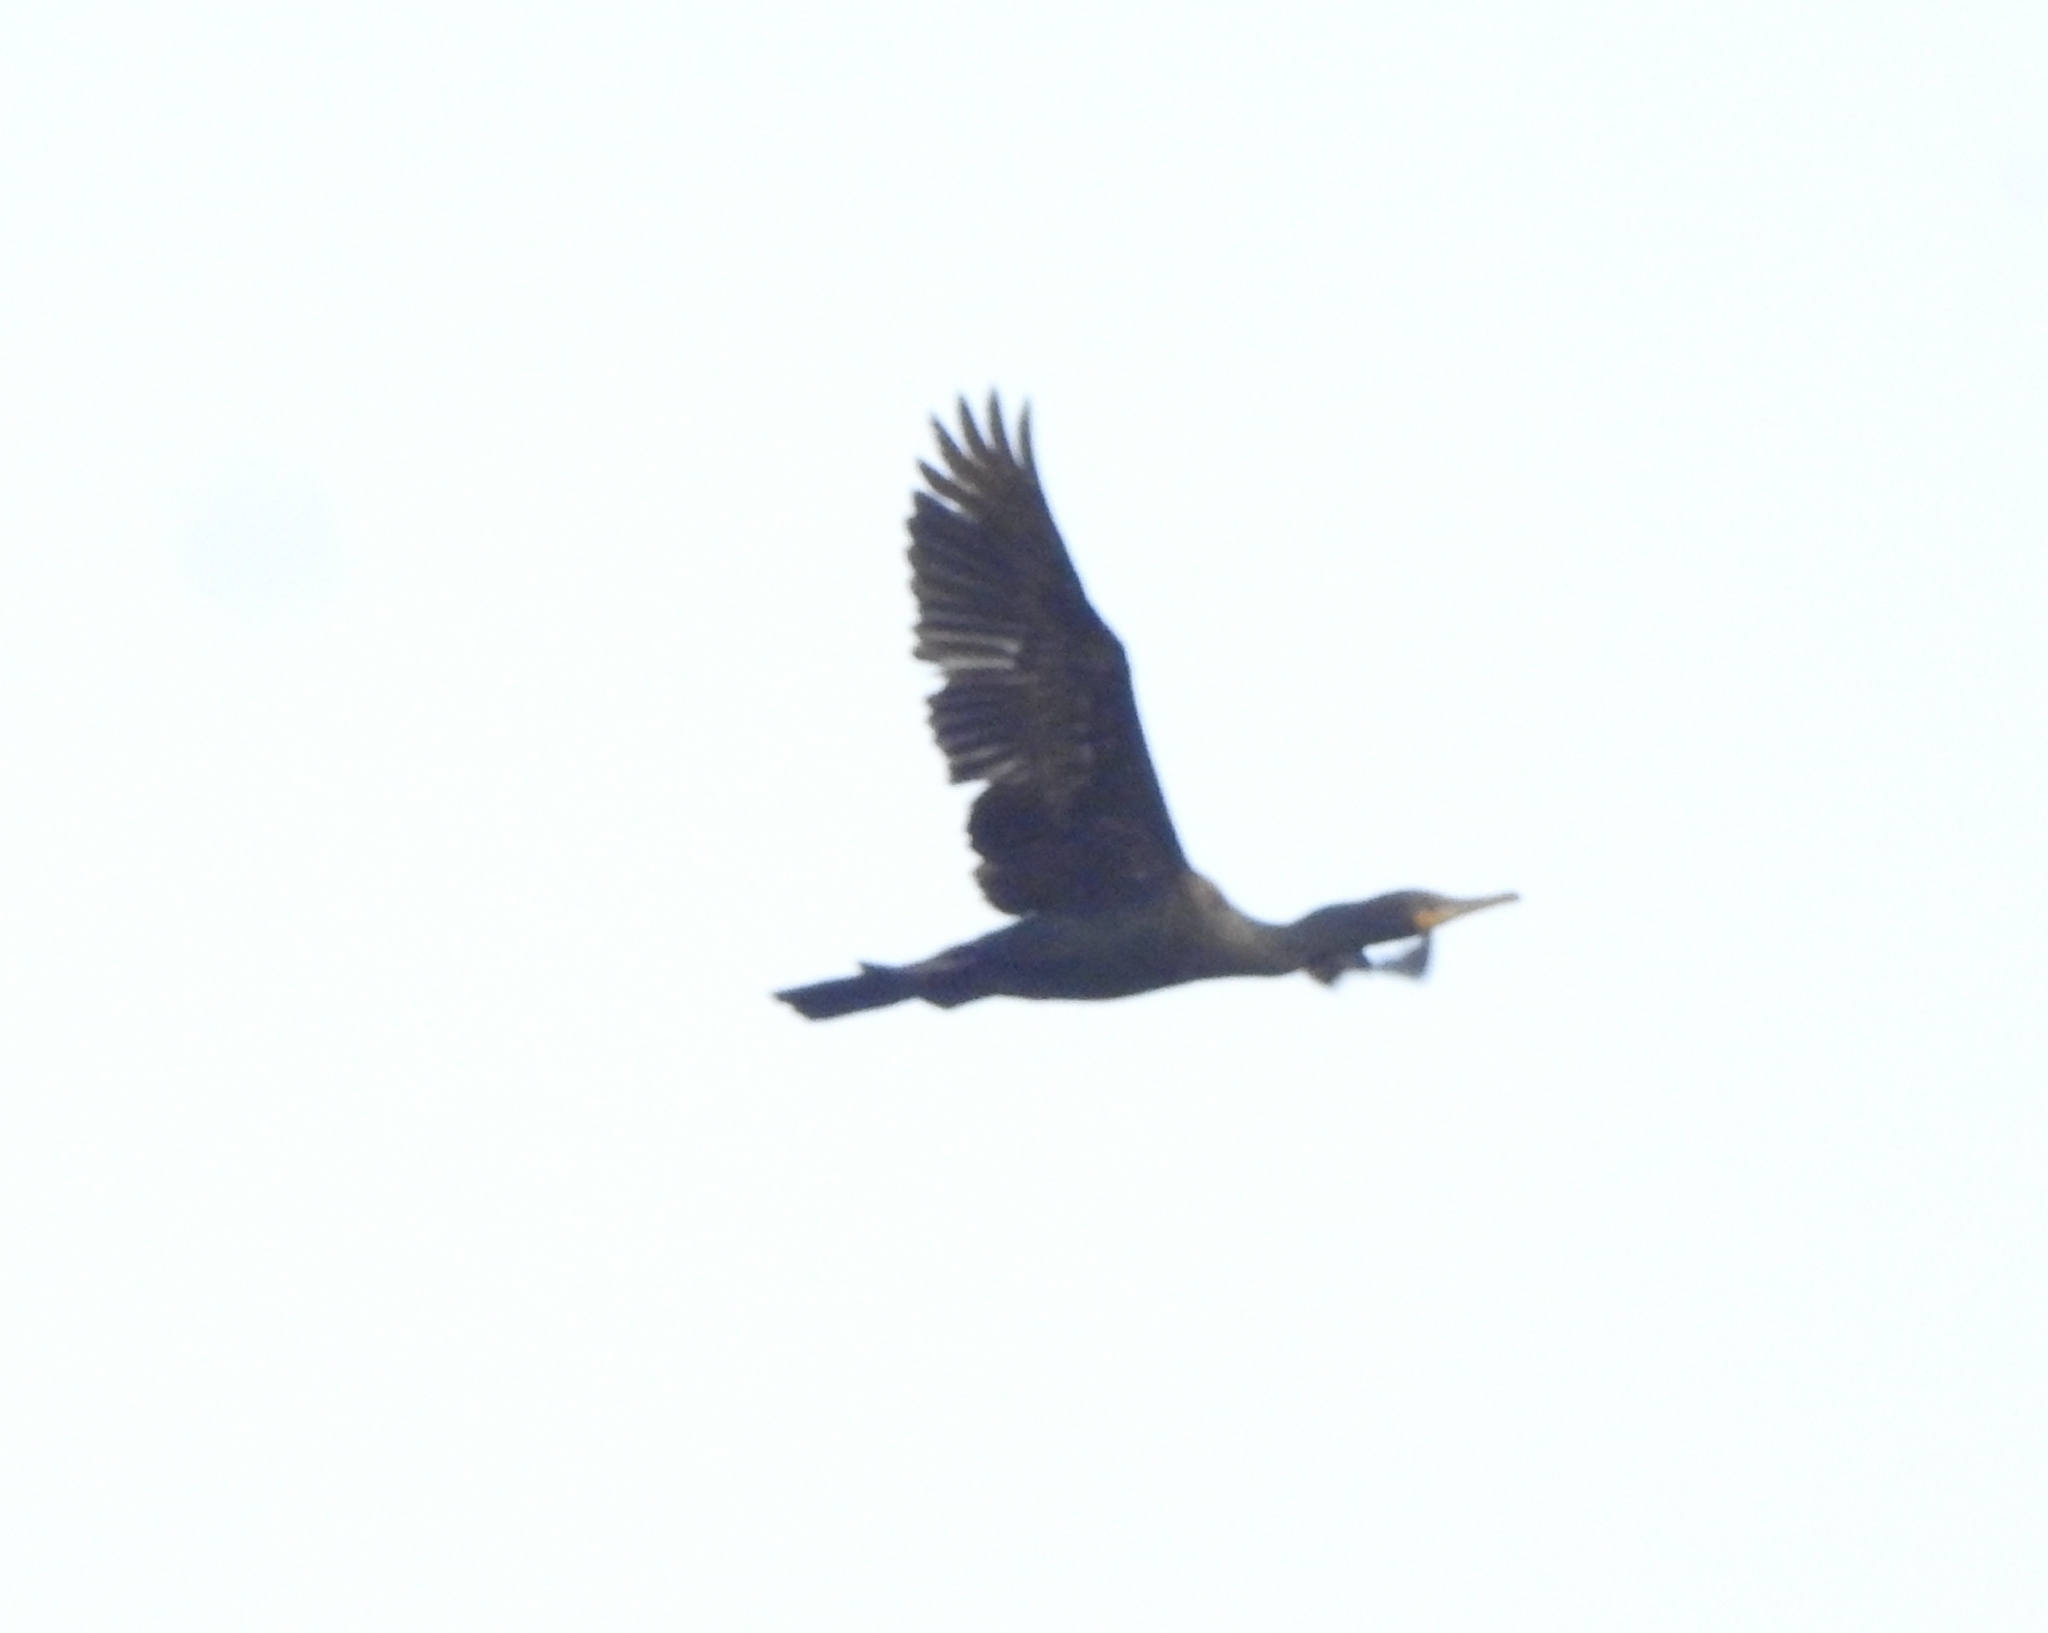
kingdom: Animalia
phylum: Chordata
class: Aves
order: Suliformes
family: Phalacrocoracidae
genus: Phalacrocorax
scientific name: Phalacrocorax fuscicollis
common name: Indian cormorant
